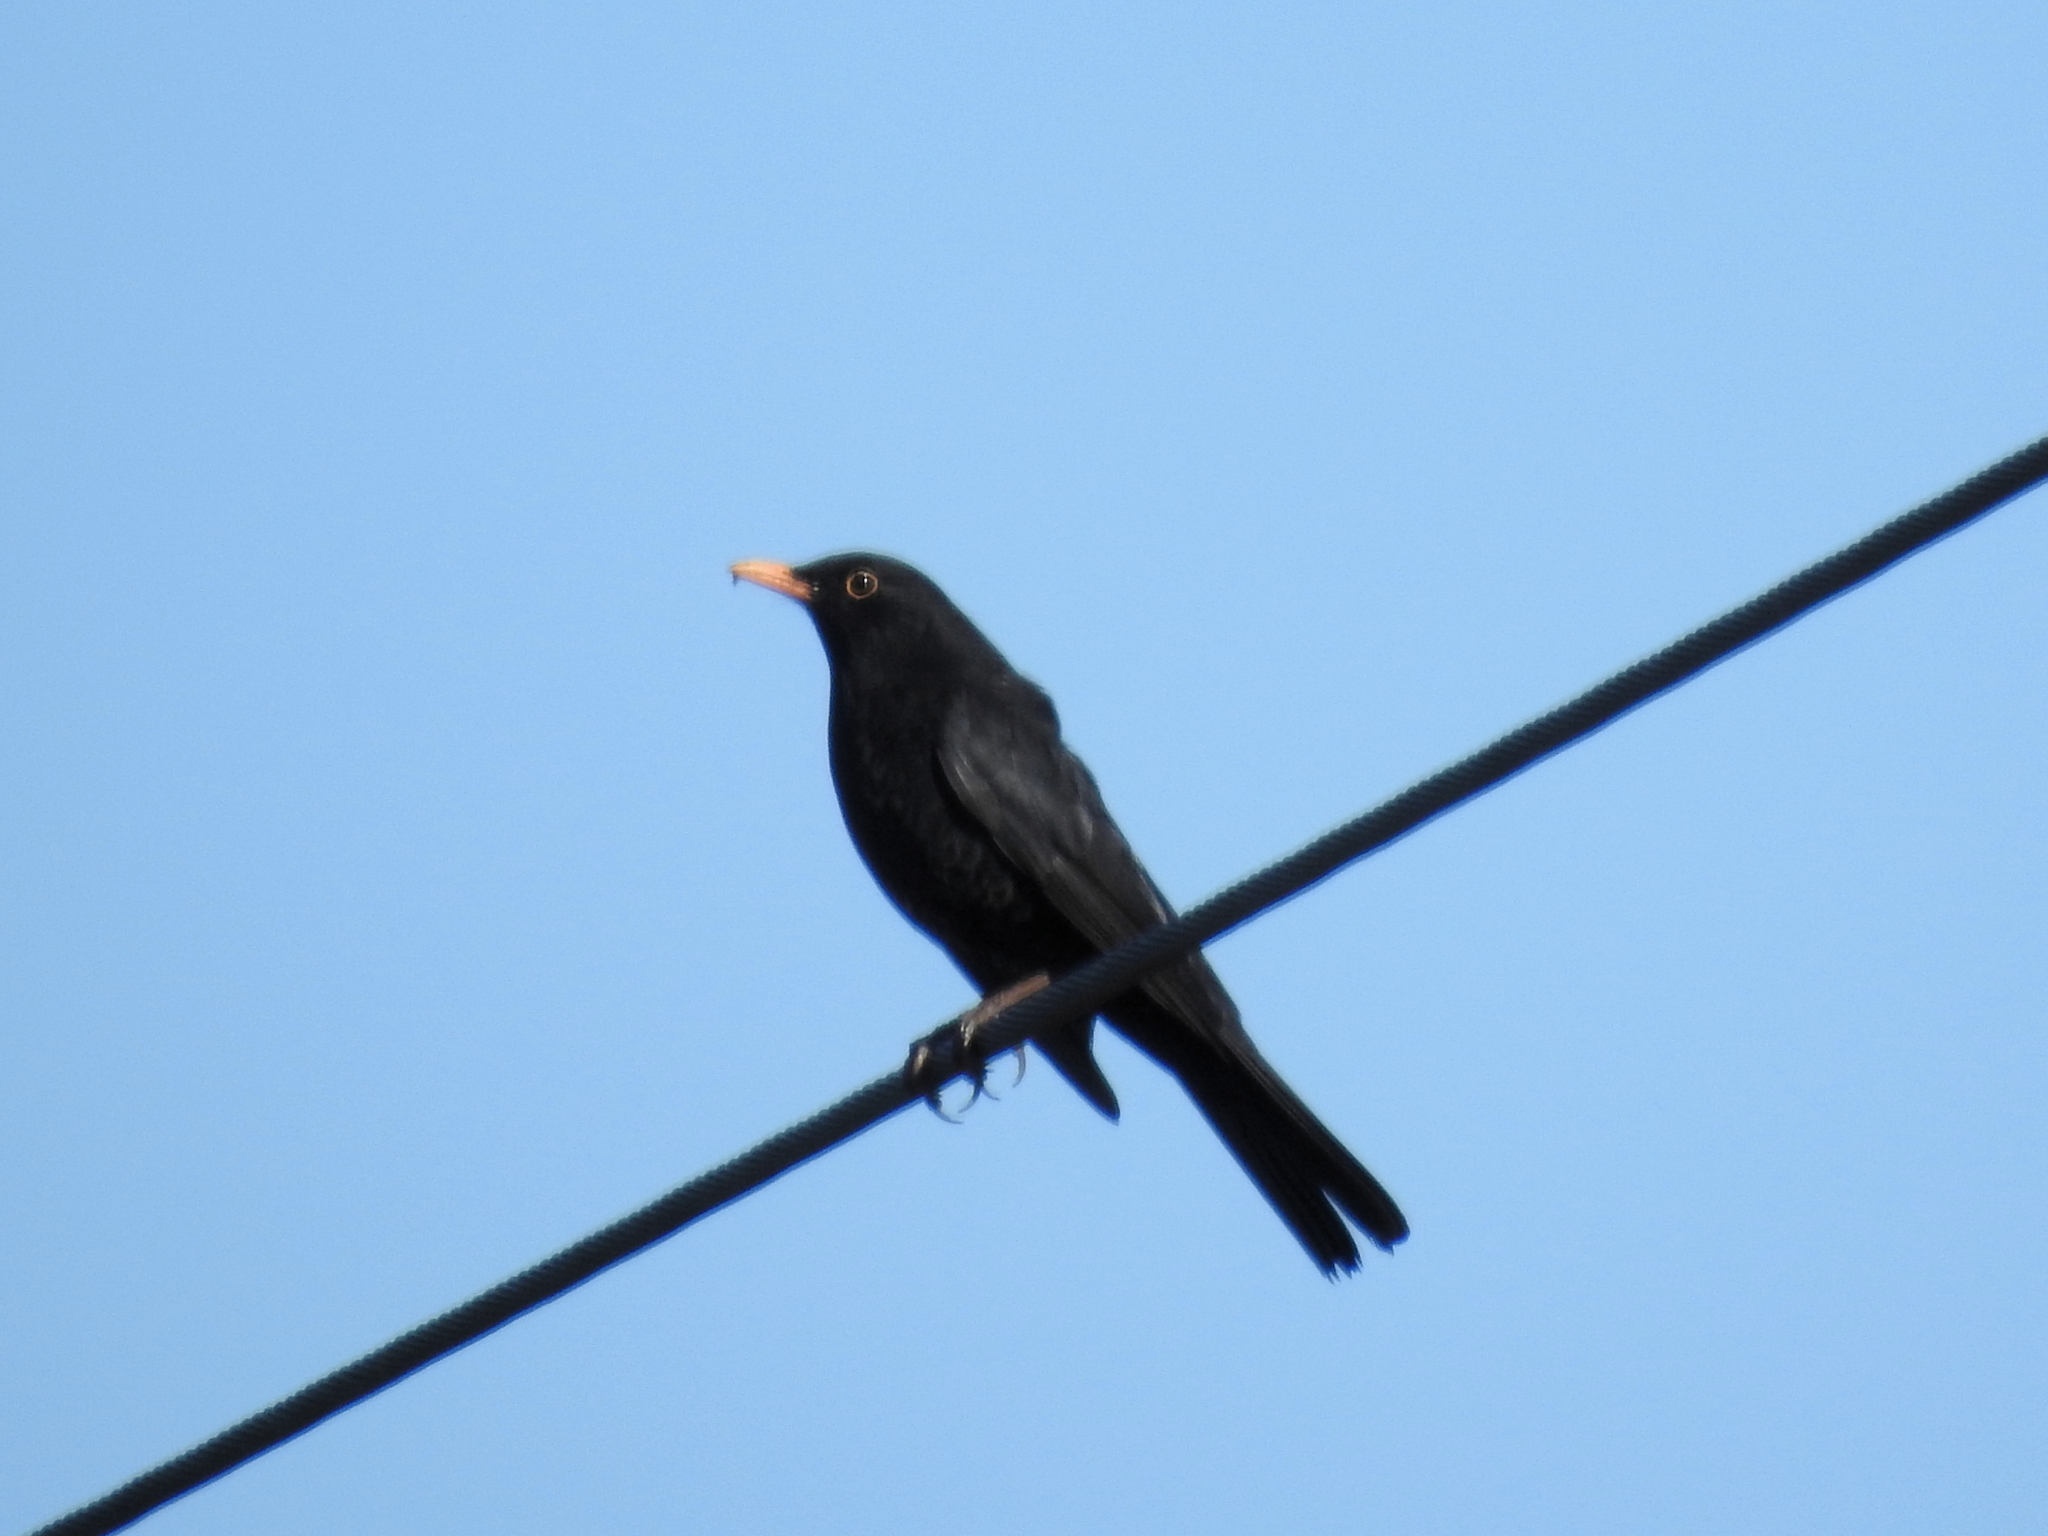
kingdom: Animalia
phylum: Chordata
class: Aves
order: Passeriformes
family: Turdidae
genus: Turdus
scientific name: Turdus merula
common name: Common blackbird
